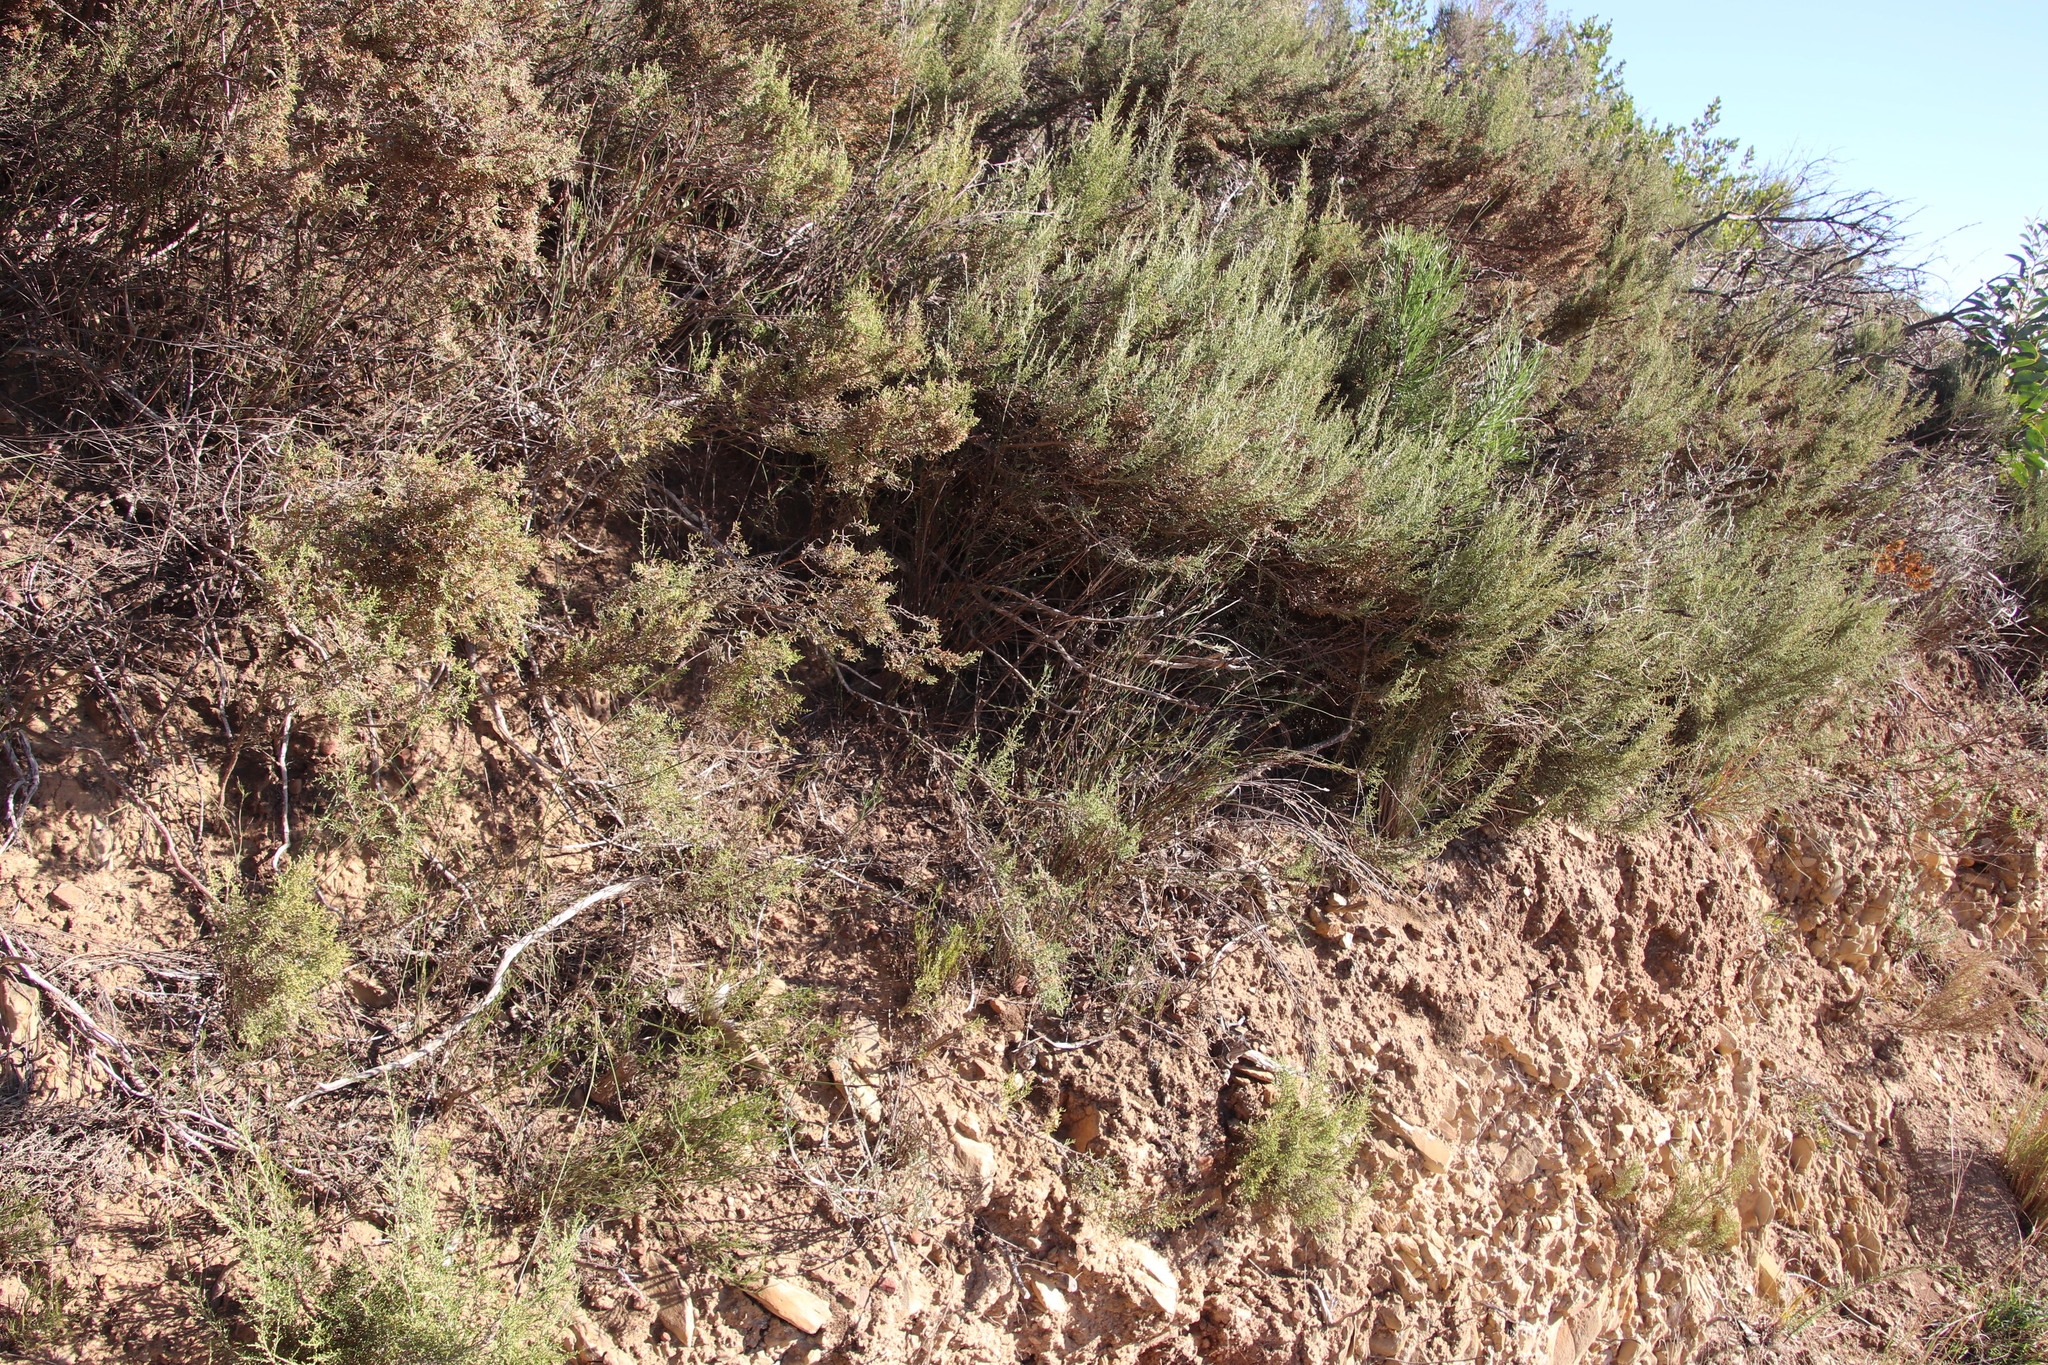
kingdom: Plantae
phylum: Tracheophyta
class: Liliopsida
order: Poales
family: Restionaceae
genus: Restio
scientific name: Restio capensis
